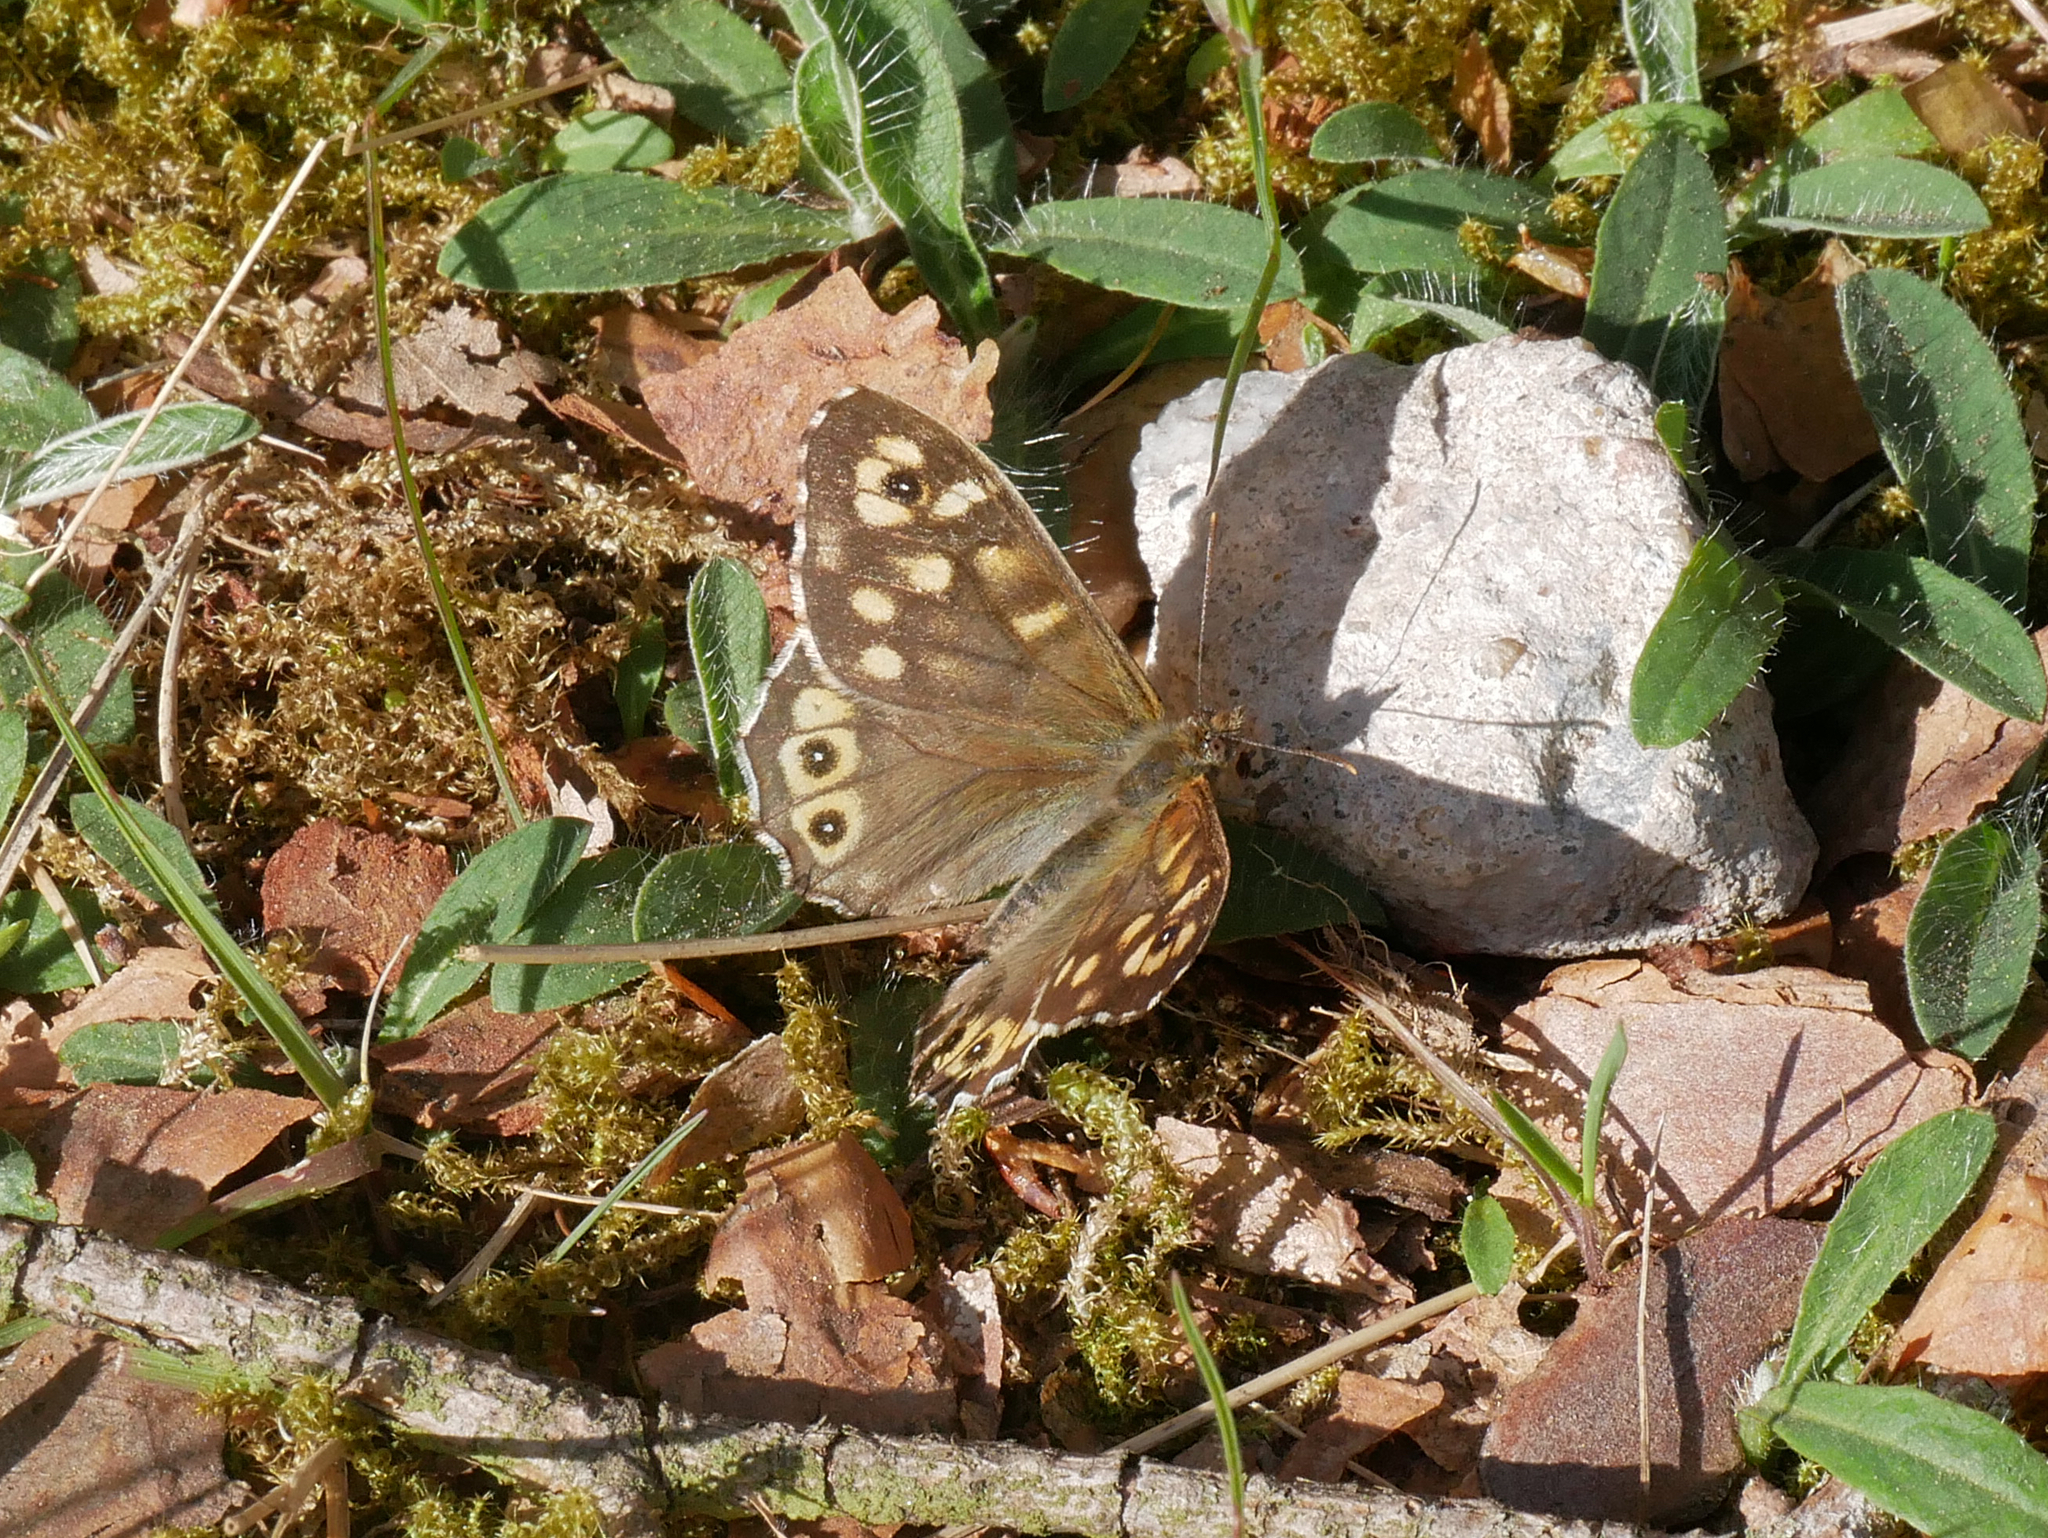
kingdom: Animalia
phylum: Arthropoda
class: Insecta
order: Lepidoptera
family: Nymphalidae
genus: Pararge
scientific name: Pararge aegeria
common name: Speckled wood
